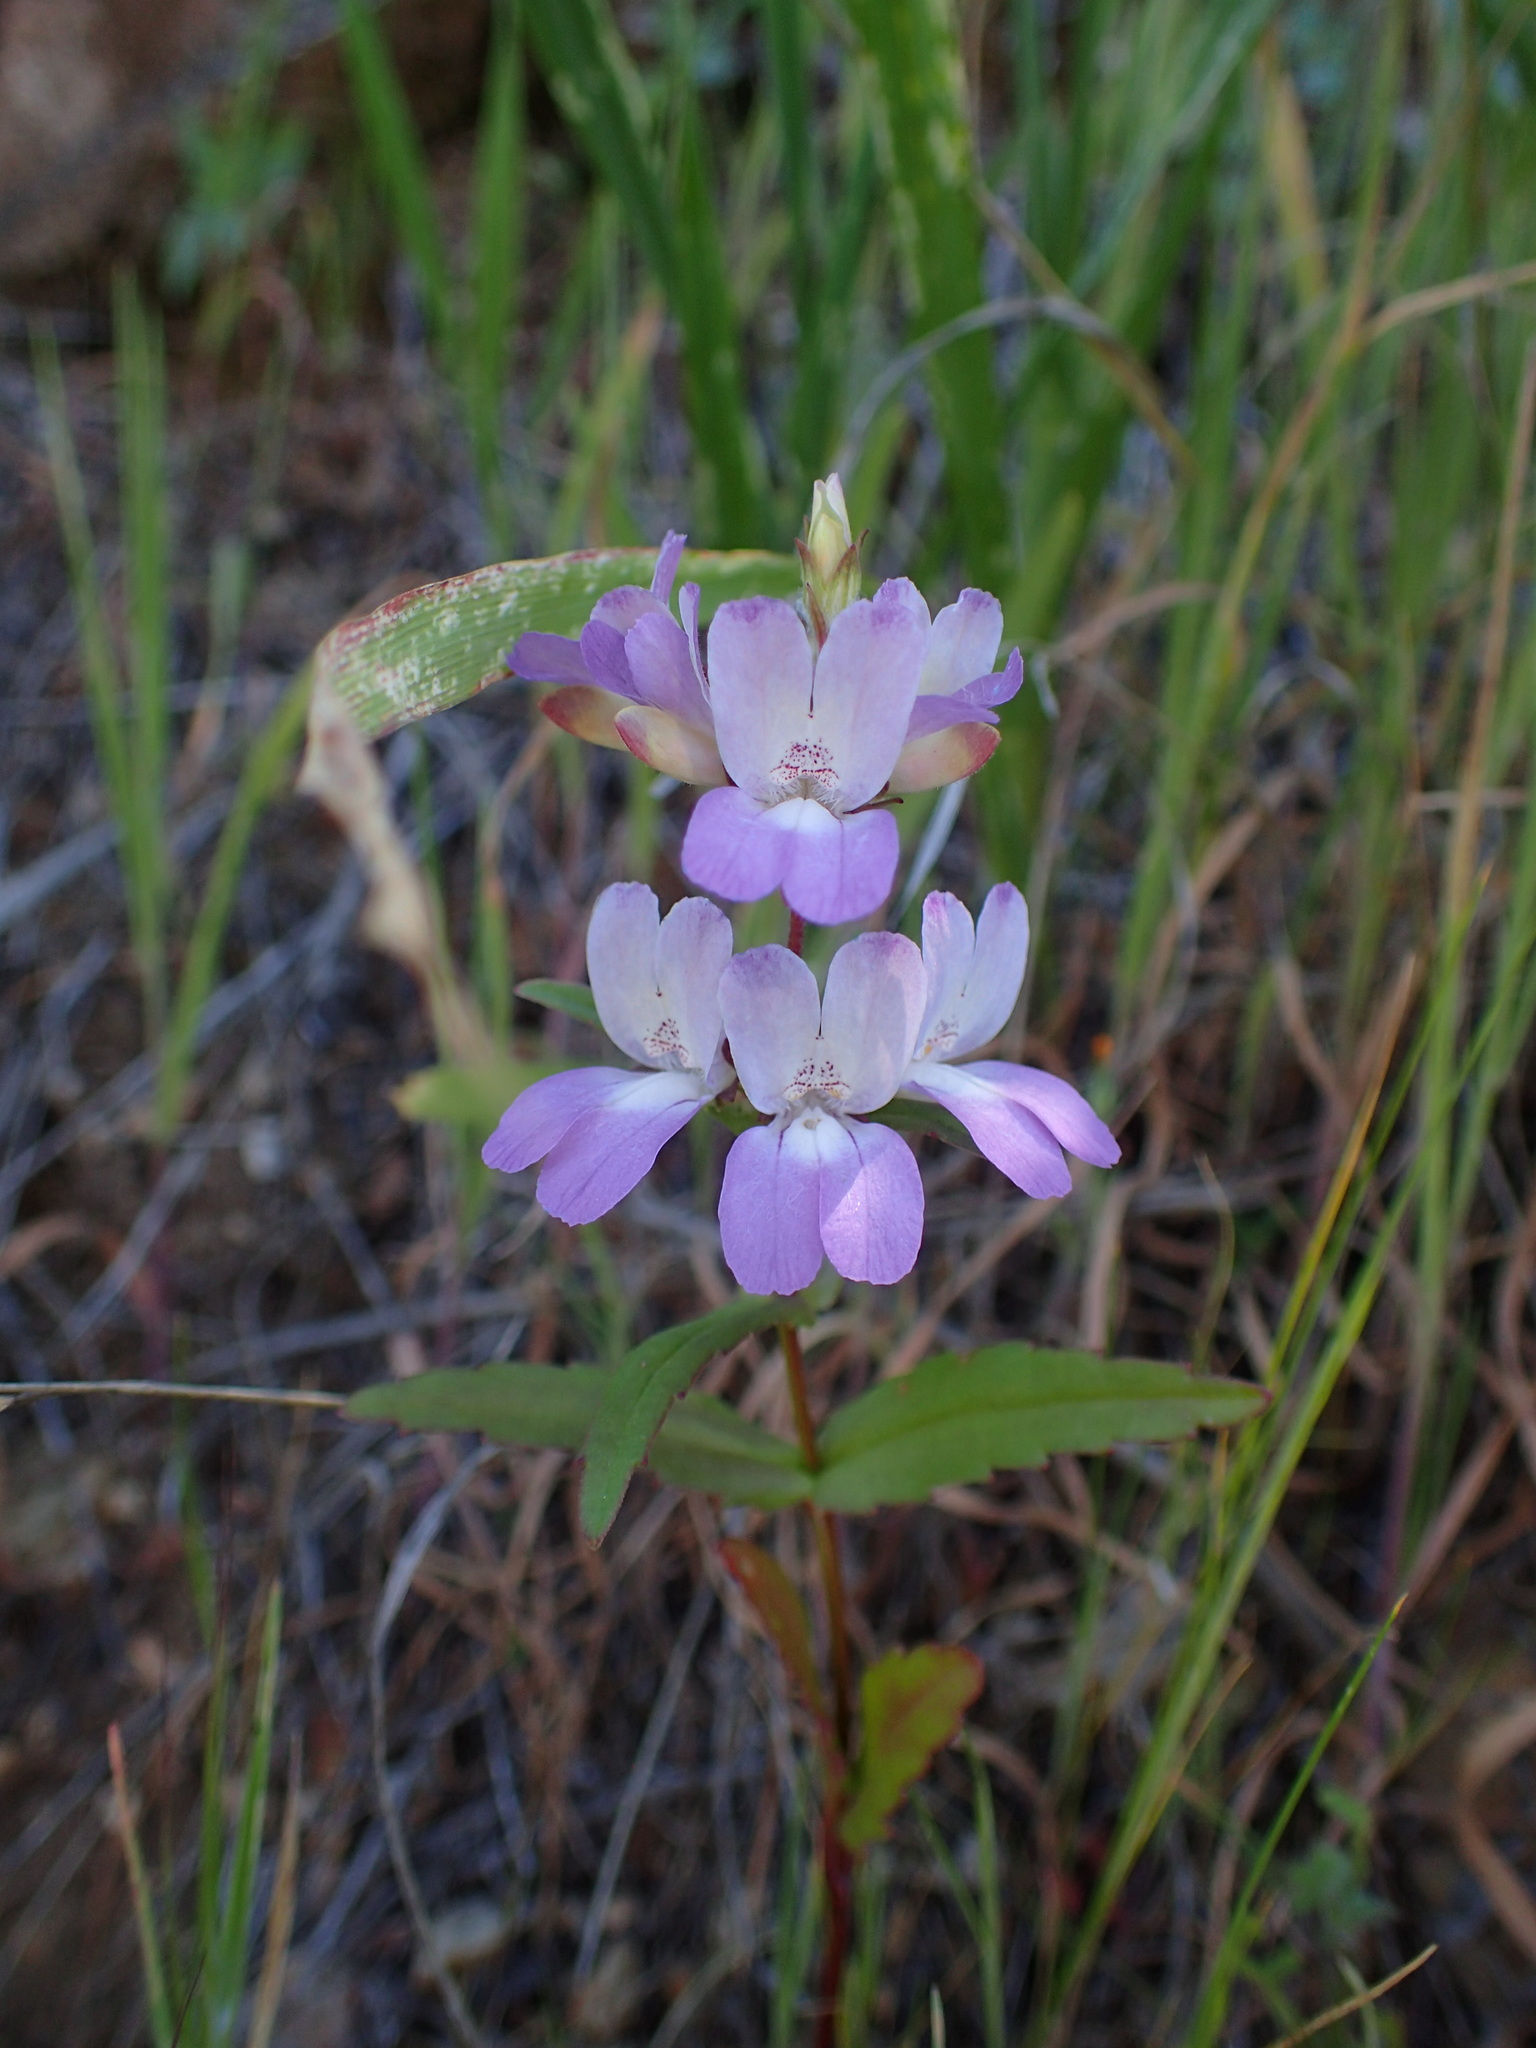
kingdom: Plantae
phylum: Tracheophyta
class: Magnoliopsida
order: Lamiales
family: Plantaginaceae
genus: Collinsia
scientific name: Collinsia heterophylla
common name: Chinese-houses
